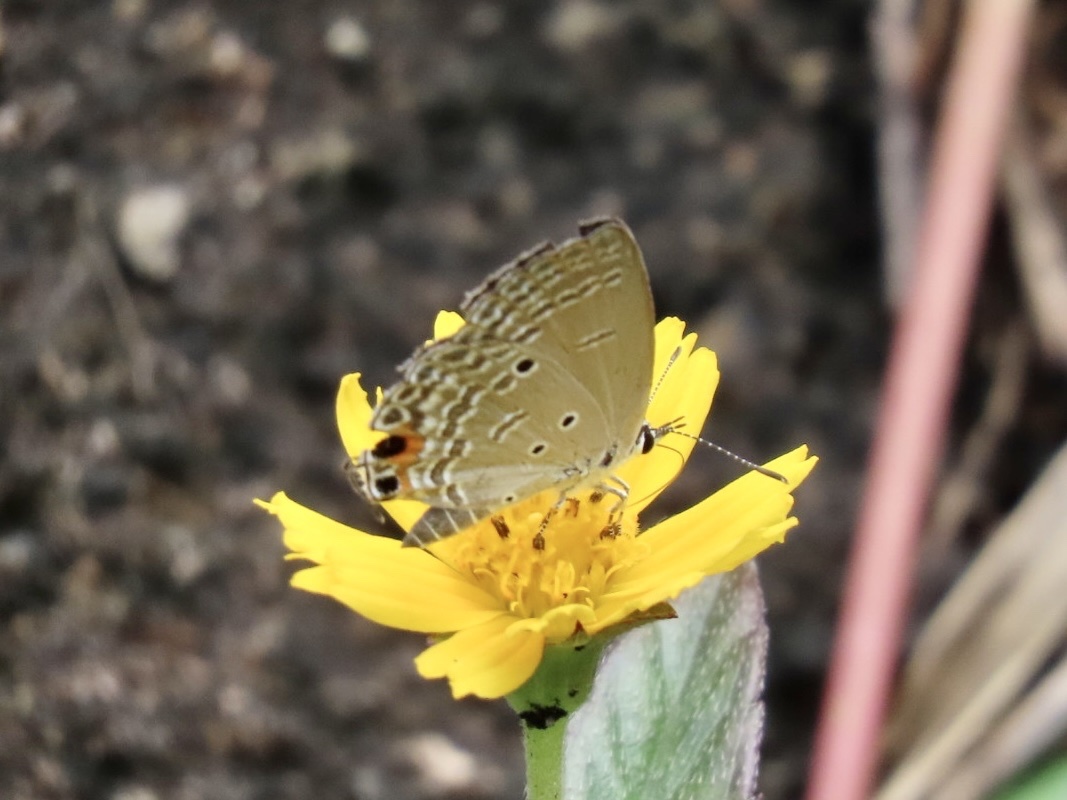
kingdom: Animalia
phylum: Arthropoda
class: Insecta
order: Lepidoptera
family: Lycaenidae
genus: Luthrodes
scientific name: Luthrodes pandava
